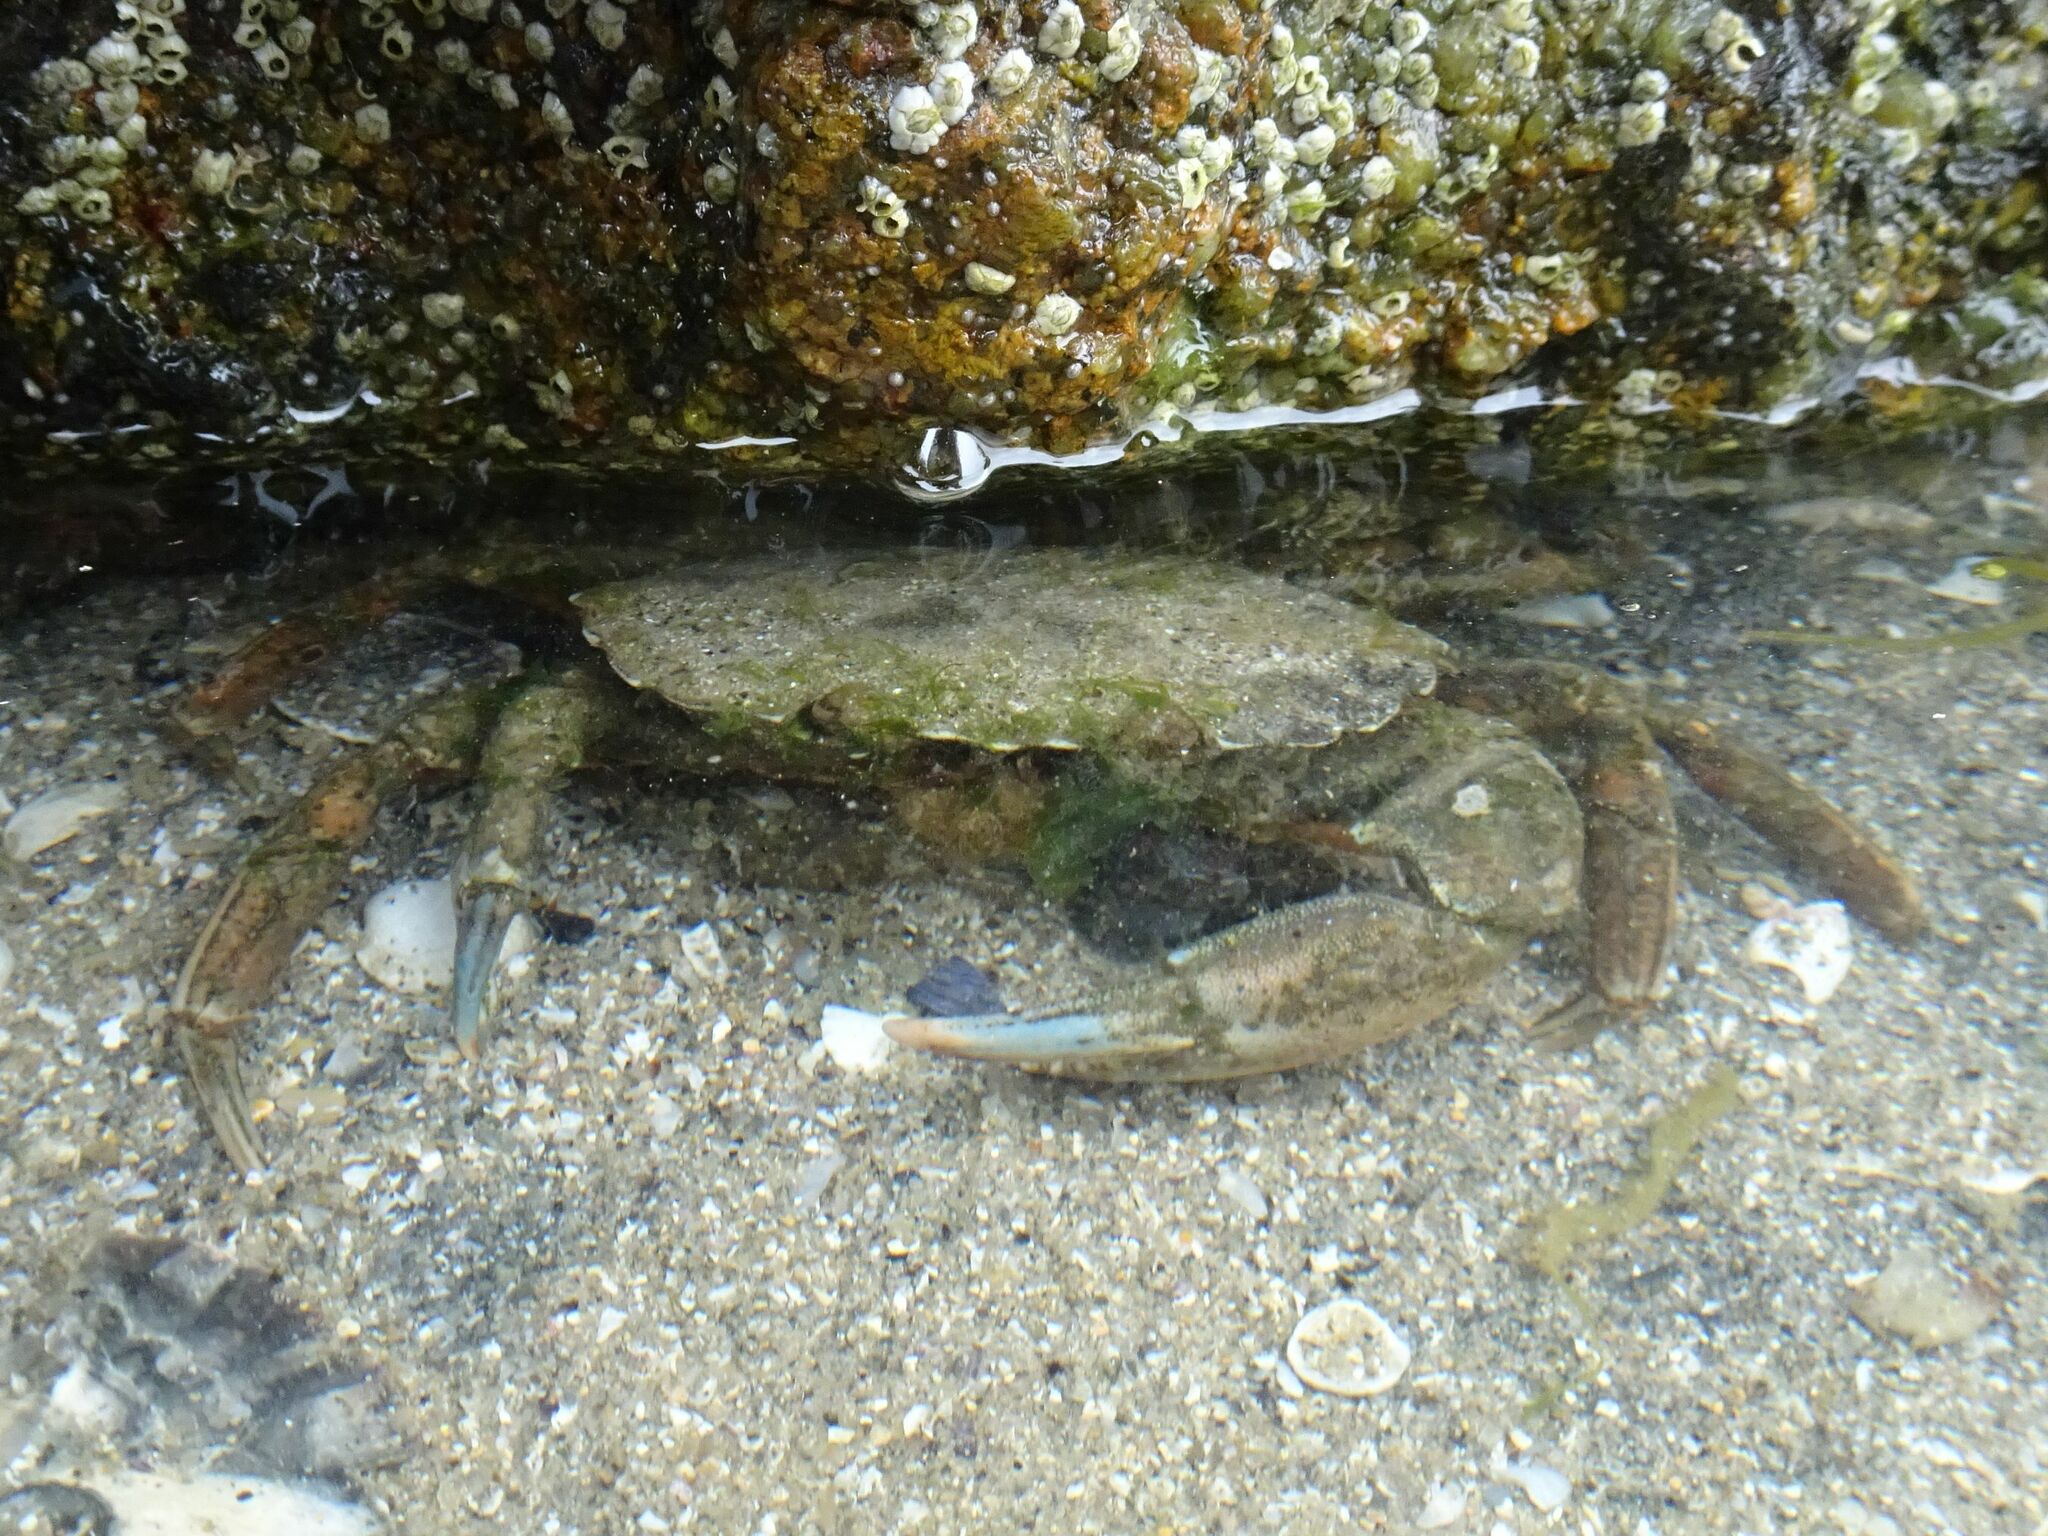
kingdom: Animalia
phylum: Arthropoda
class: Malacostraca
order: Decapoda
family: Carcinidae
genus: Carcinus
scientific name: Carcinus maenas
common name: European green crab
